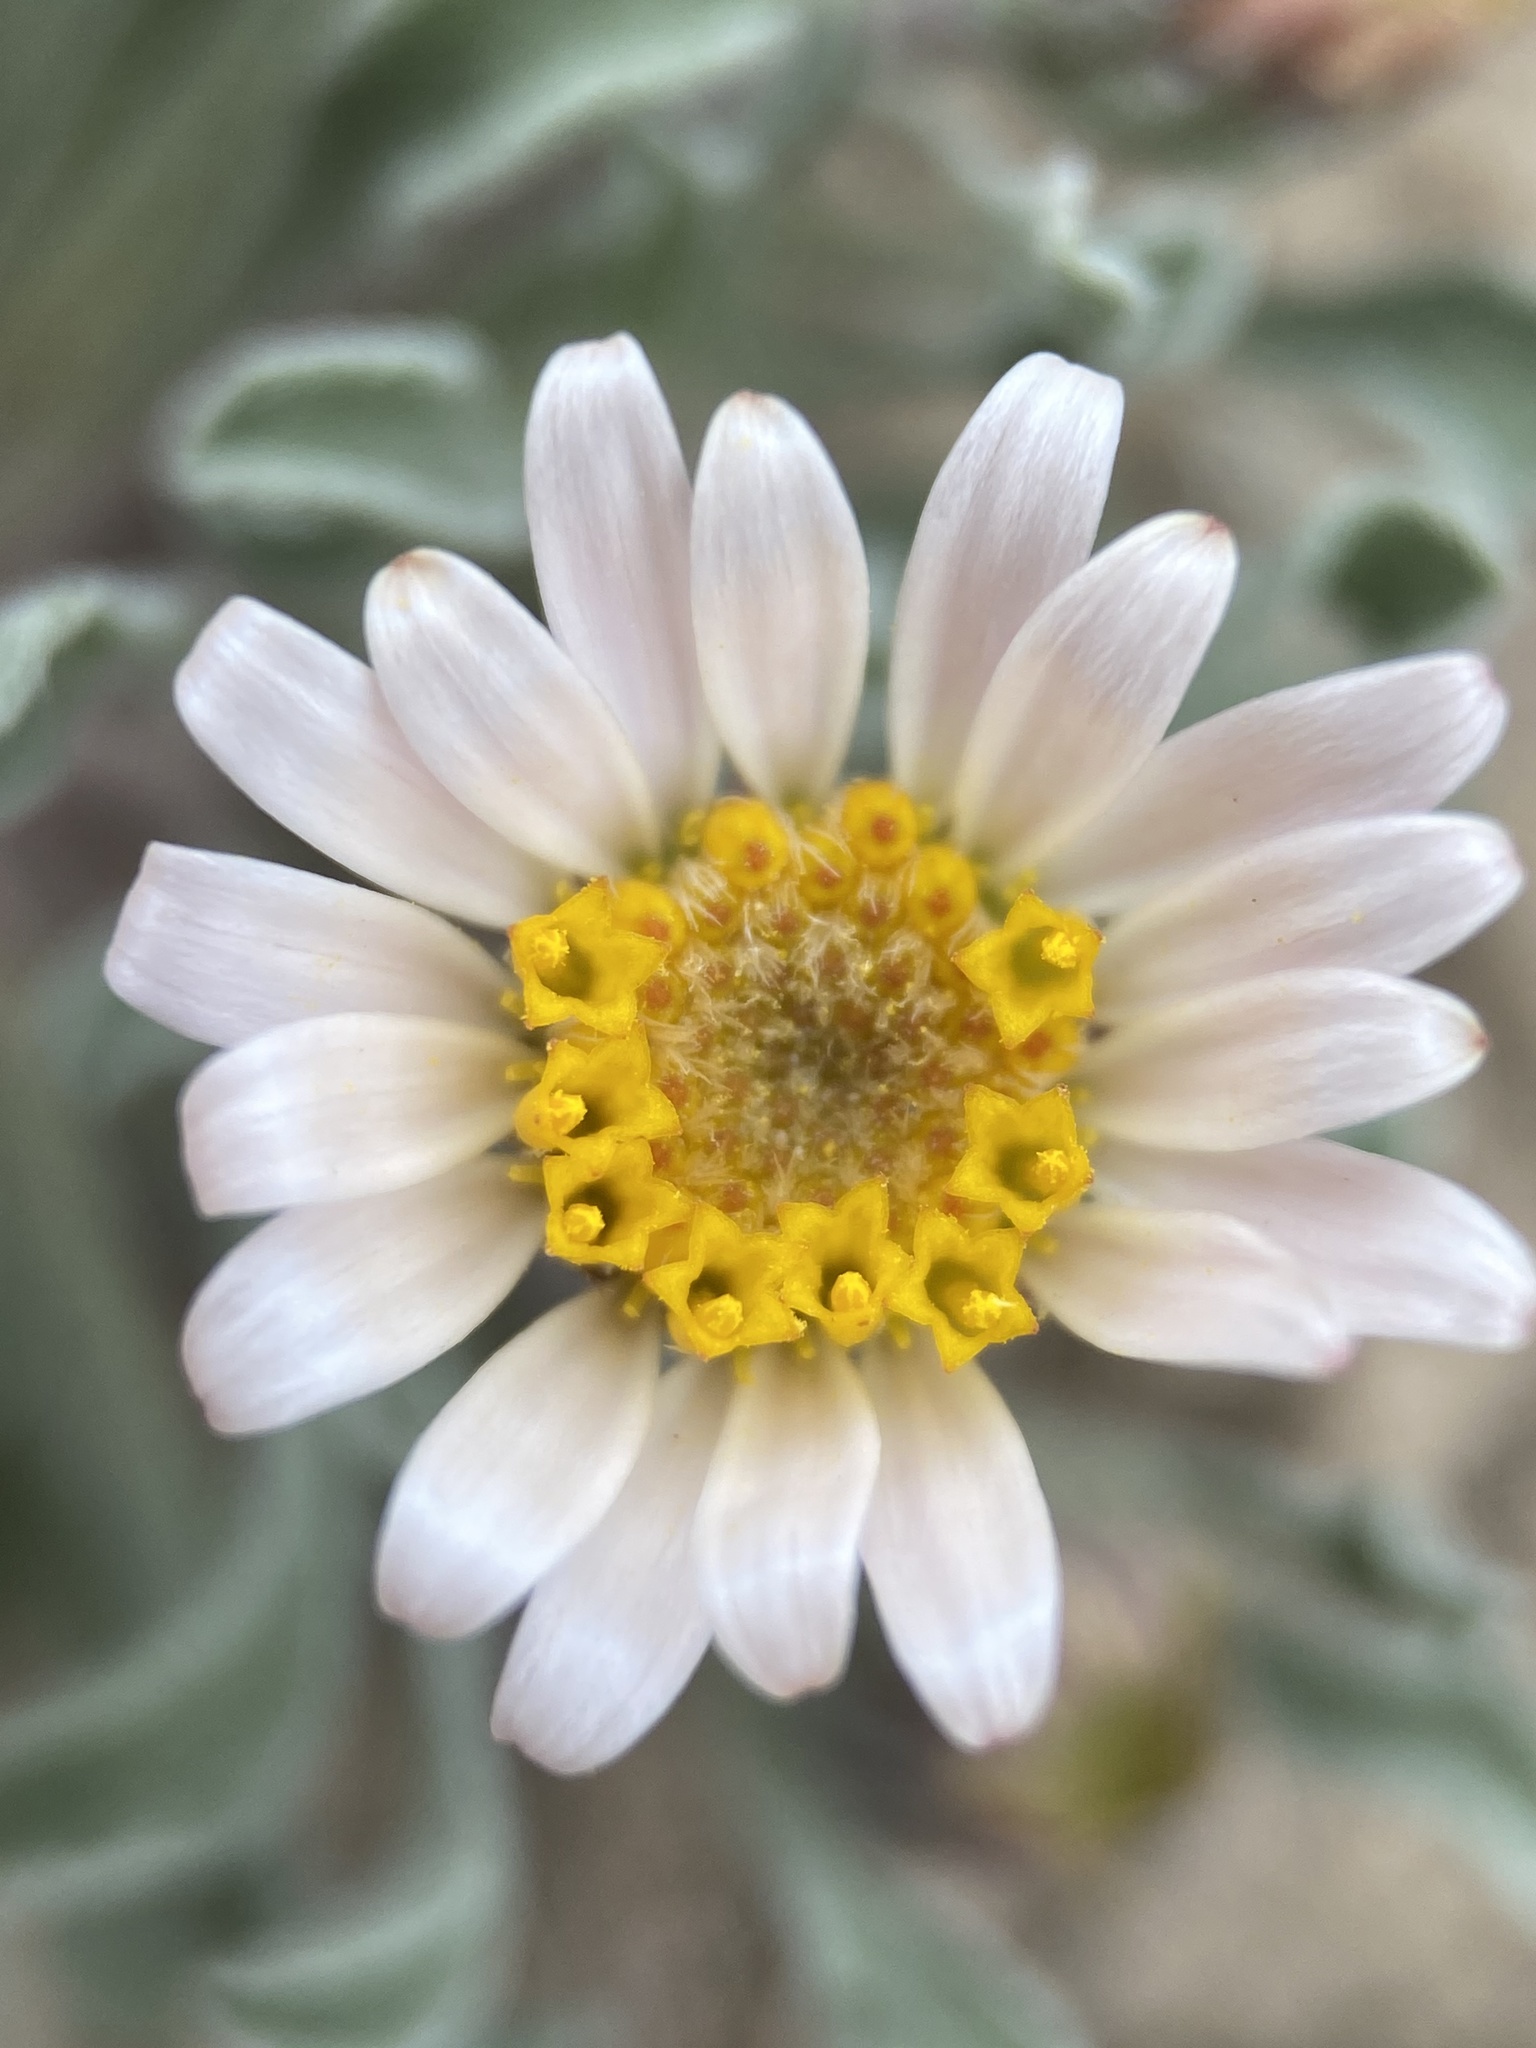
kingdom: Plantae
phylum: Tracheophyta
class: Magnoliopsida
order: Asterales
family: Asteraceae
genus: Townsendia
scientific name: Townsendia florifera
